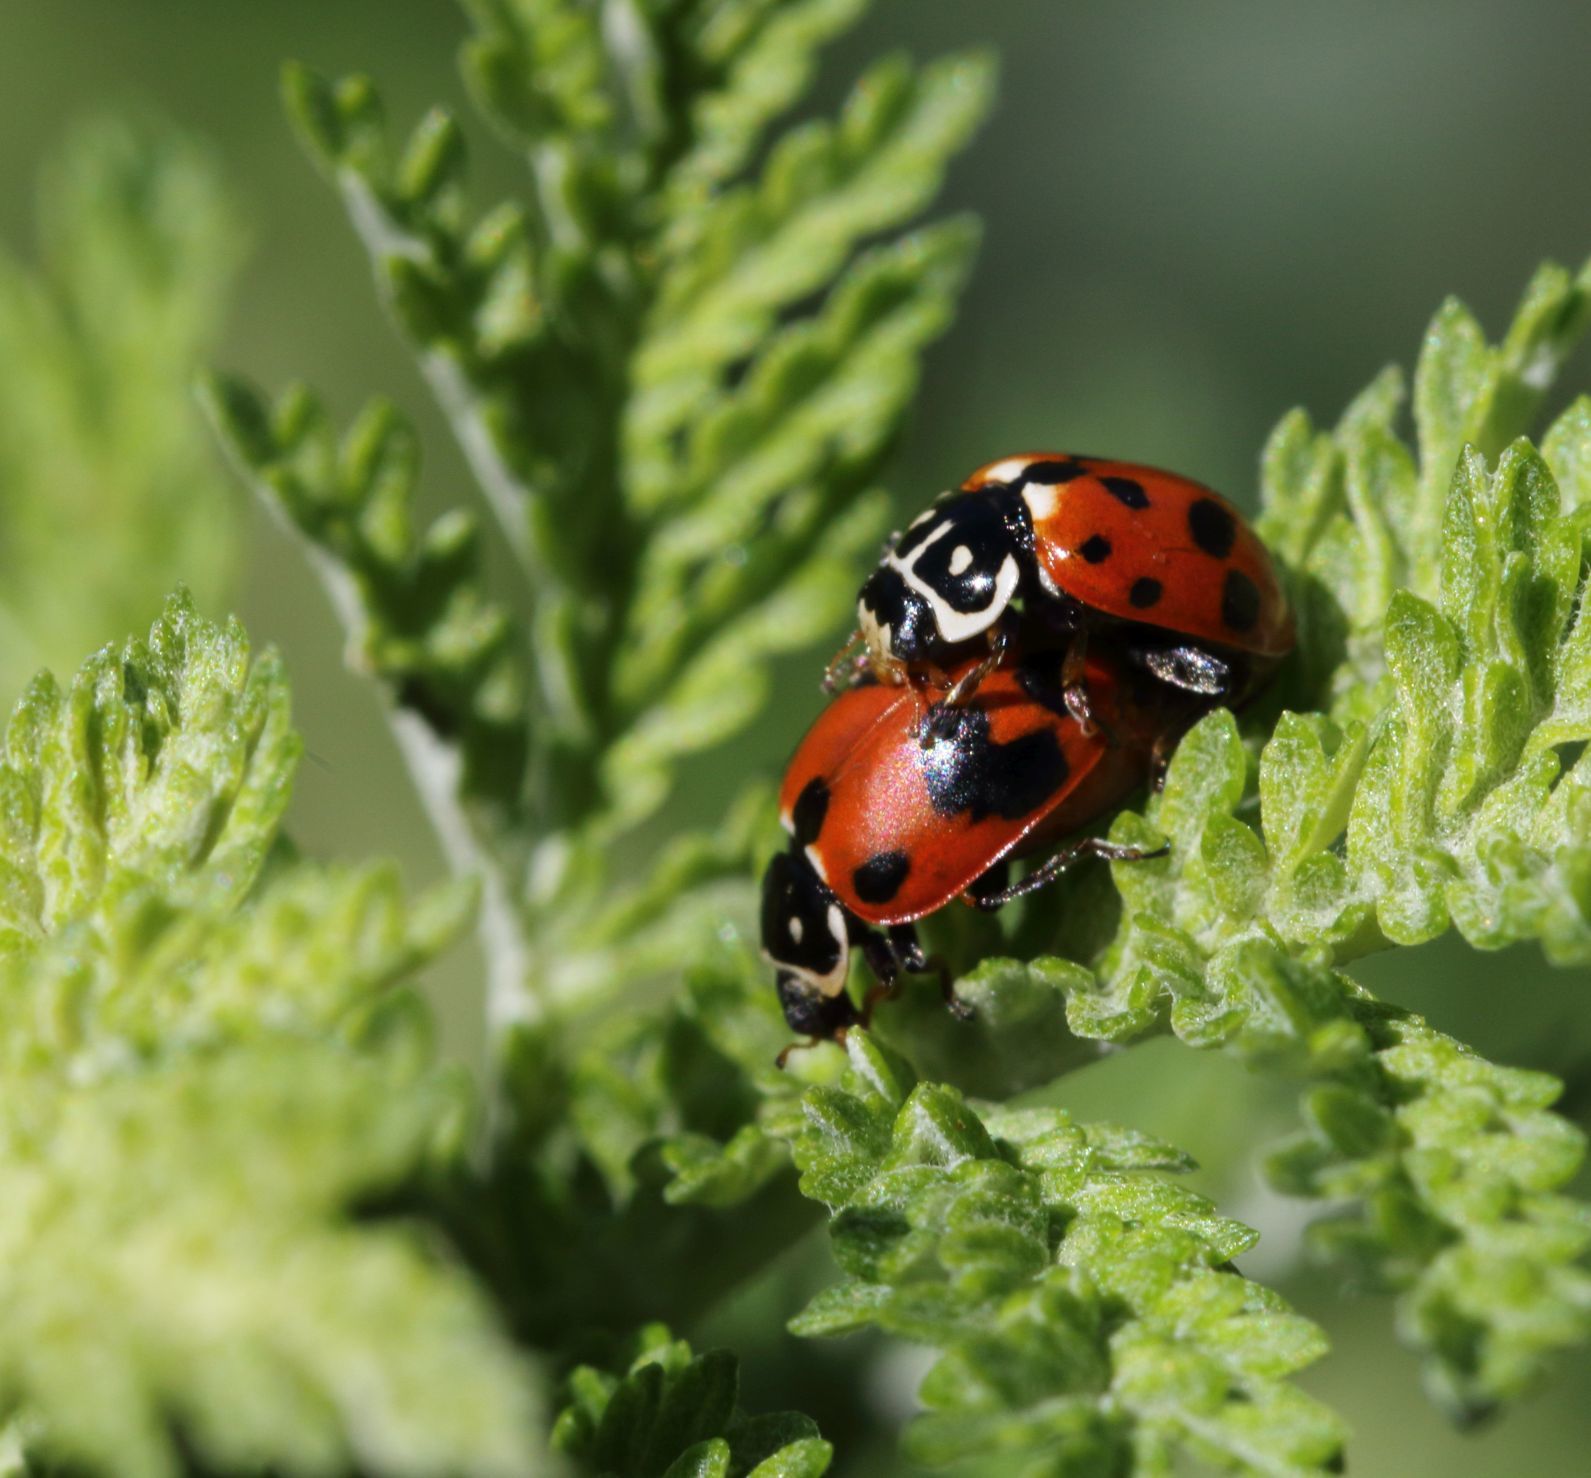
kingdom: Animalia
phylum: Arthropoda
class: Insecta
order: Coleoptera
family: Coccinellidae
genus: Hippodamia
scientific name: Hippodamia variegata
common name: Ladybird beetle
